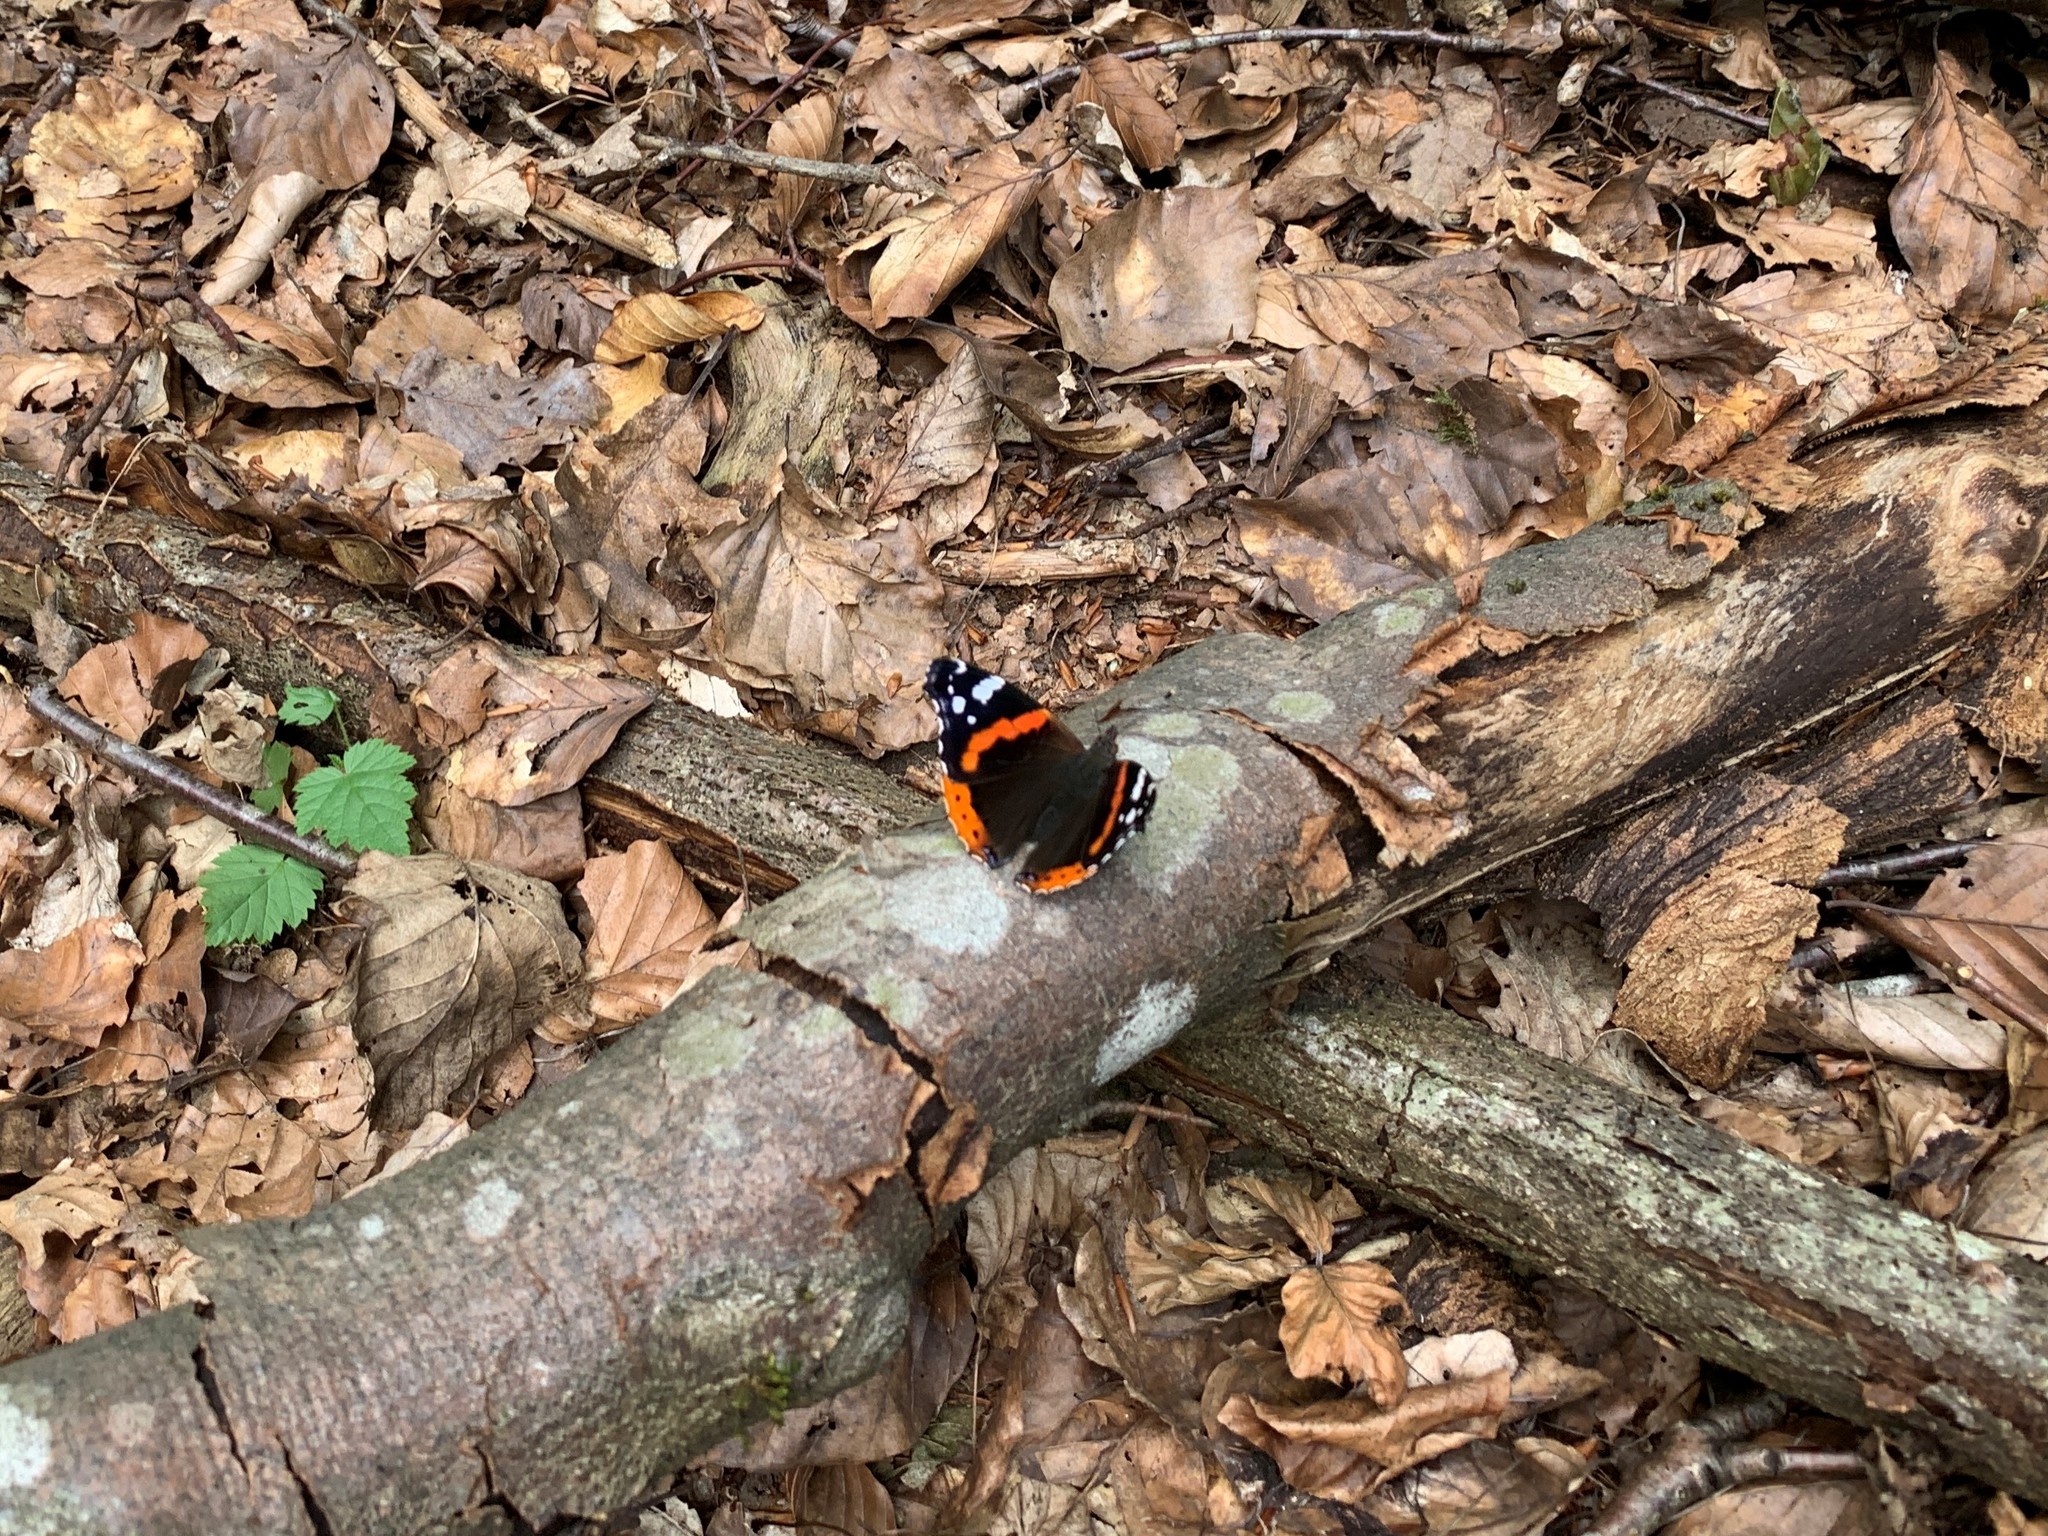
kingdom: Animalia
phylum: Arthropoda
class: Insecta
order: Lepidoptera
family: Nymphalidae
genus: Vanessa
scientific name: Vanessa atalanta
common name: Red admiral
